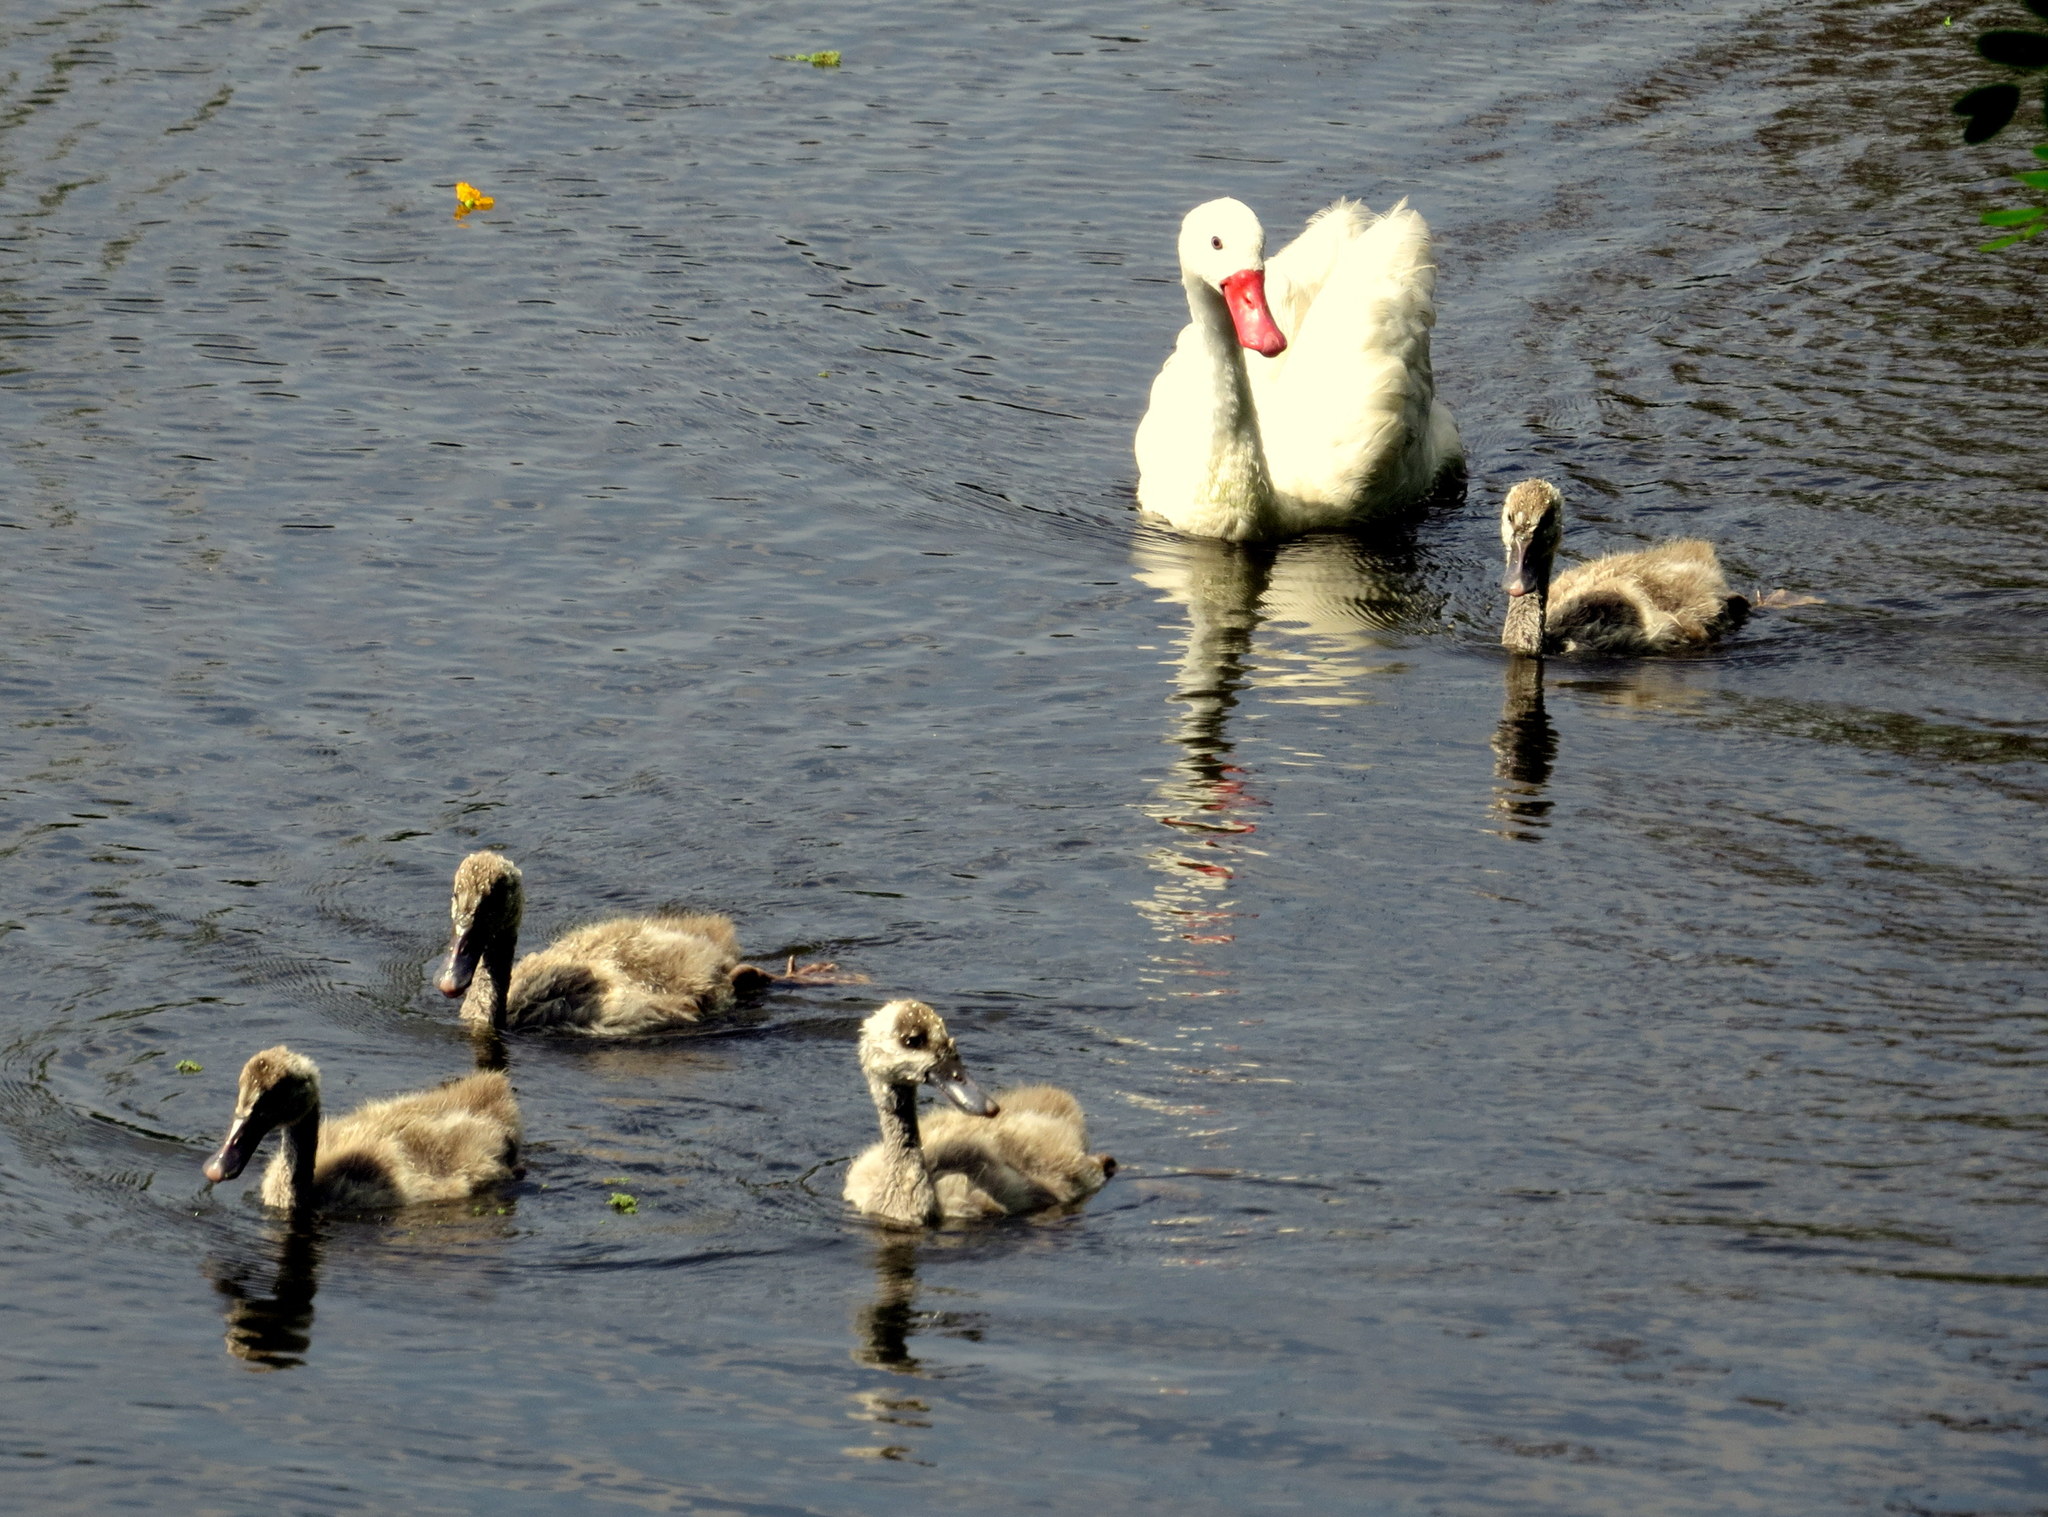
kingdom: Animalia
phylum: Chordata
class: Aves
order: Anseriformes
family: Anatidae
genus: Coscoroba
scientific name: Coscoroba coscoroba
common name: Coscoroba swan
